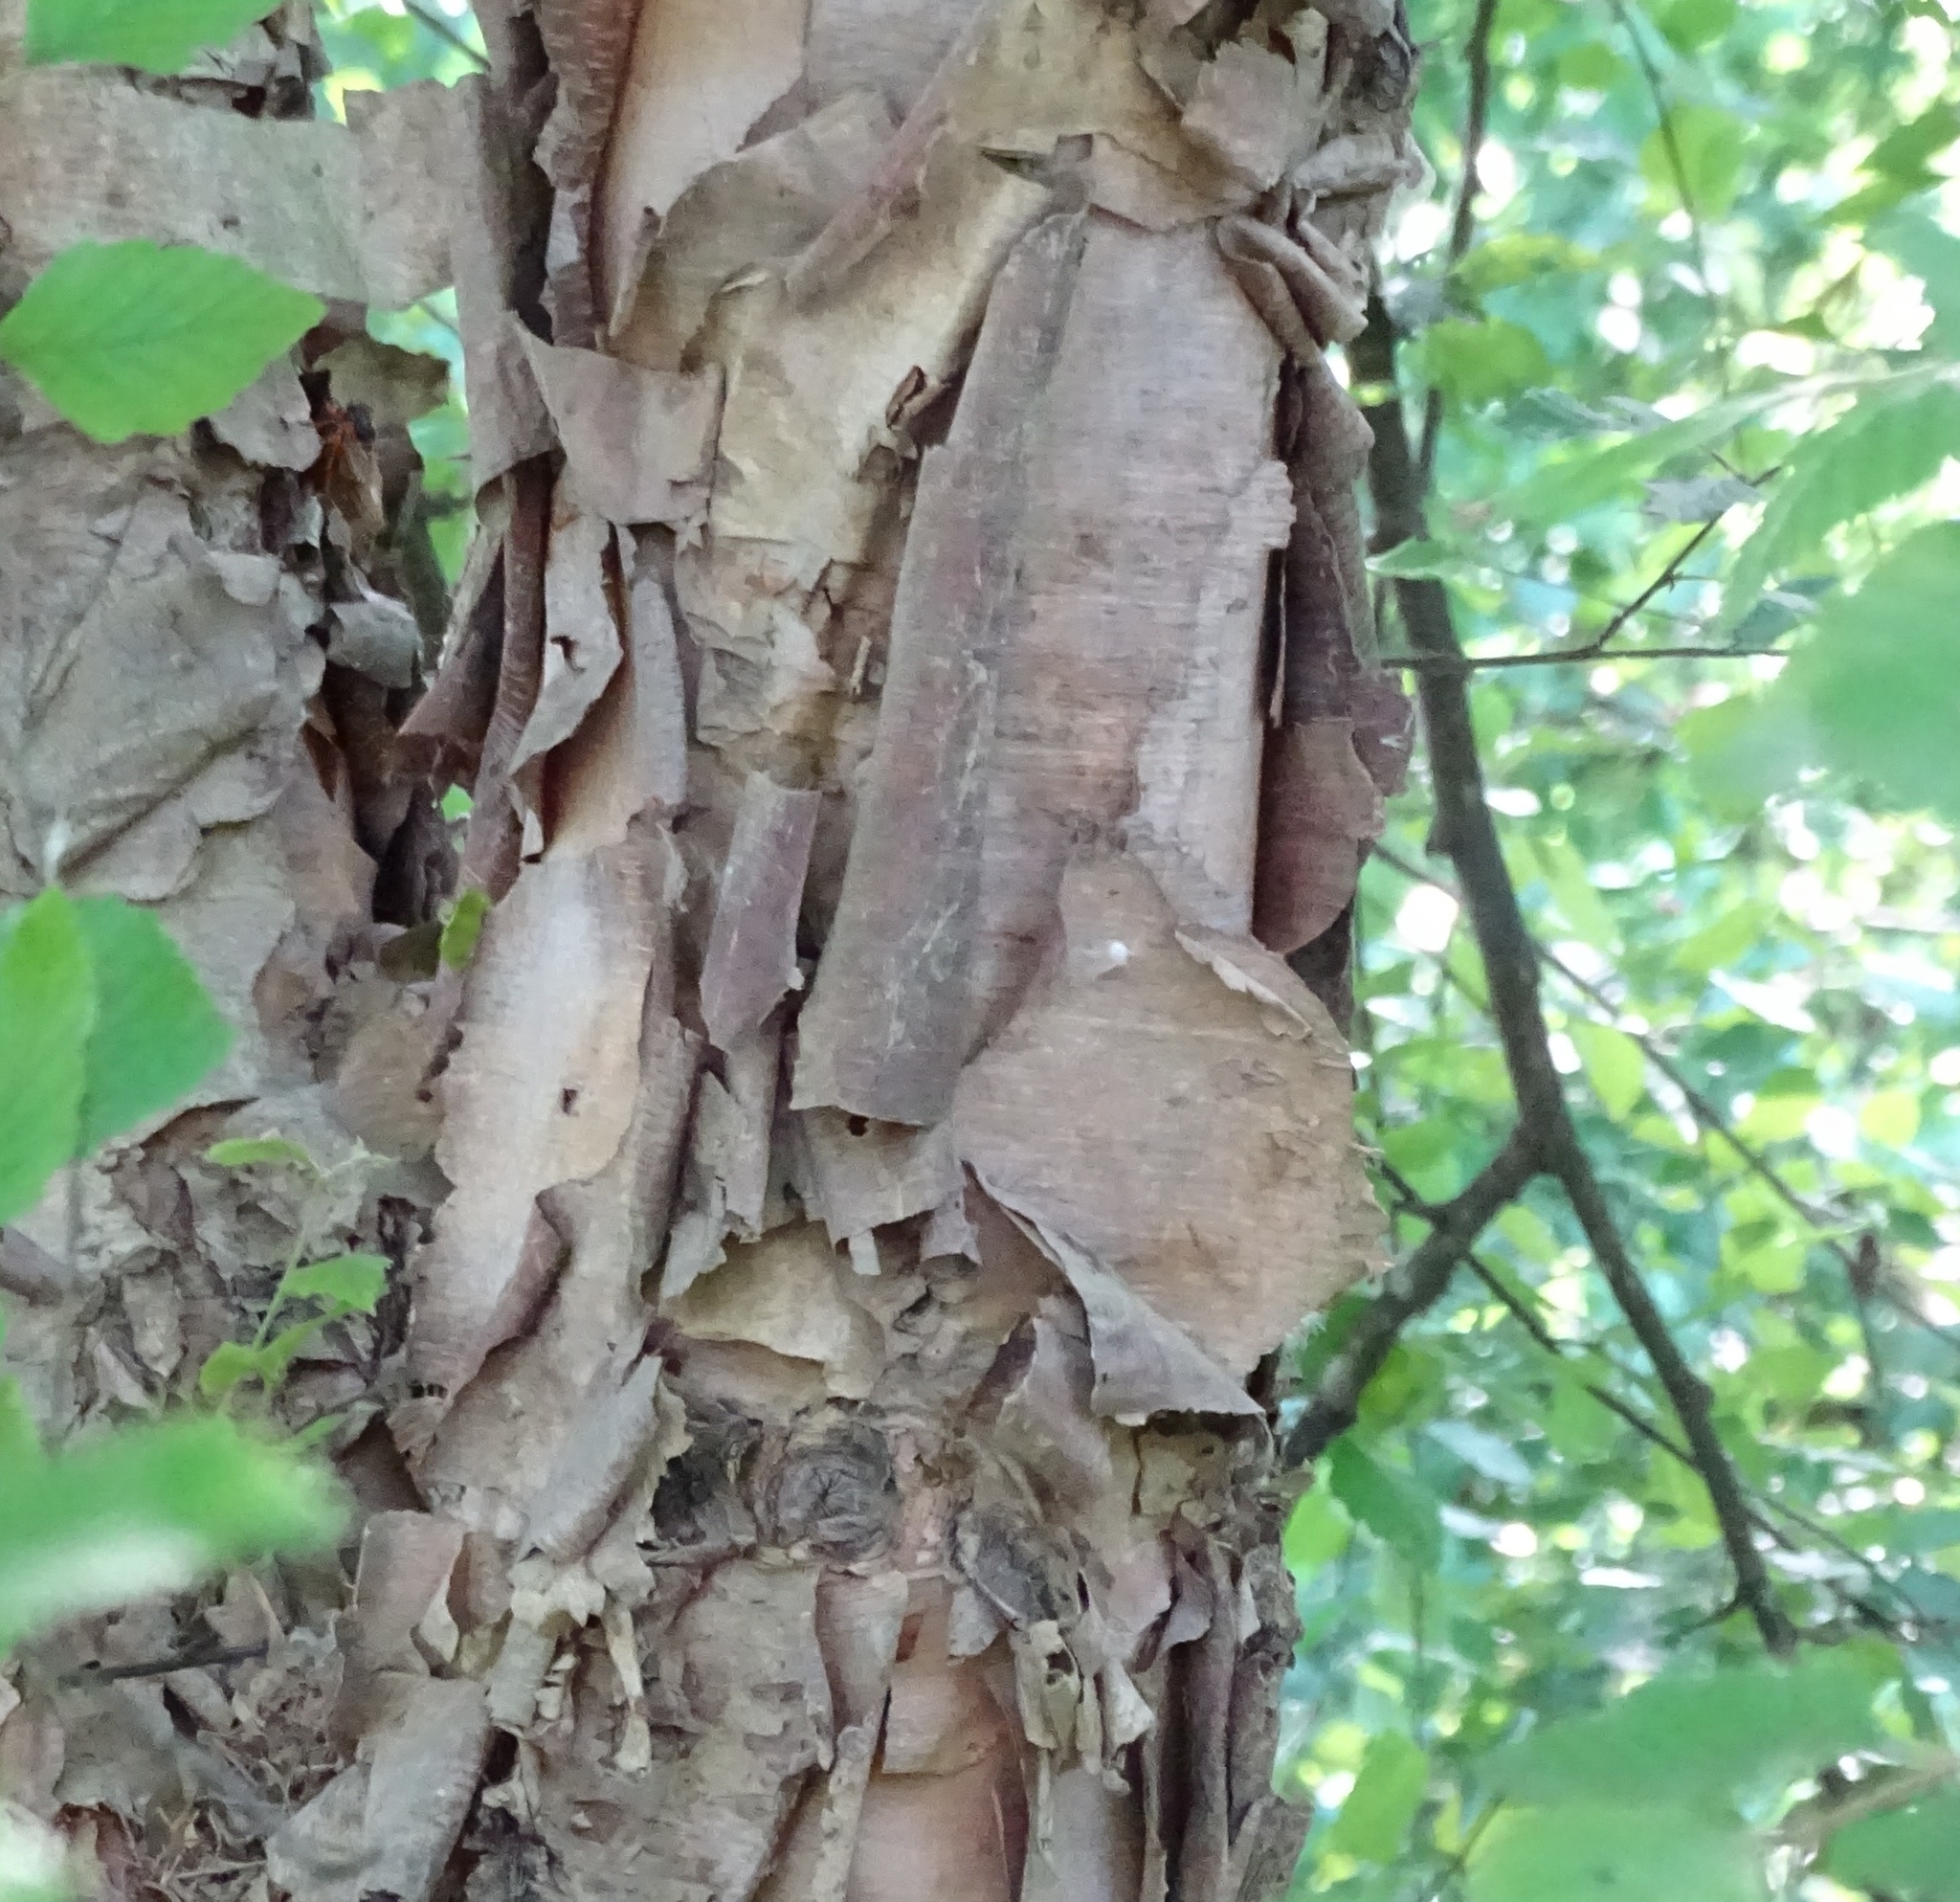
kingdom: Plantae
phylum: Tracheophyta
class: Magnoliopsida
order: Fagales
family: Betulaceae
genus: Betula
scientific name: Betula nigra
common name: Black birch
